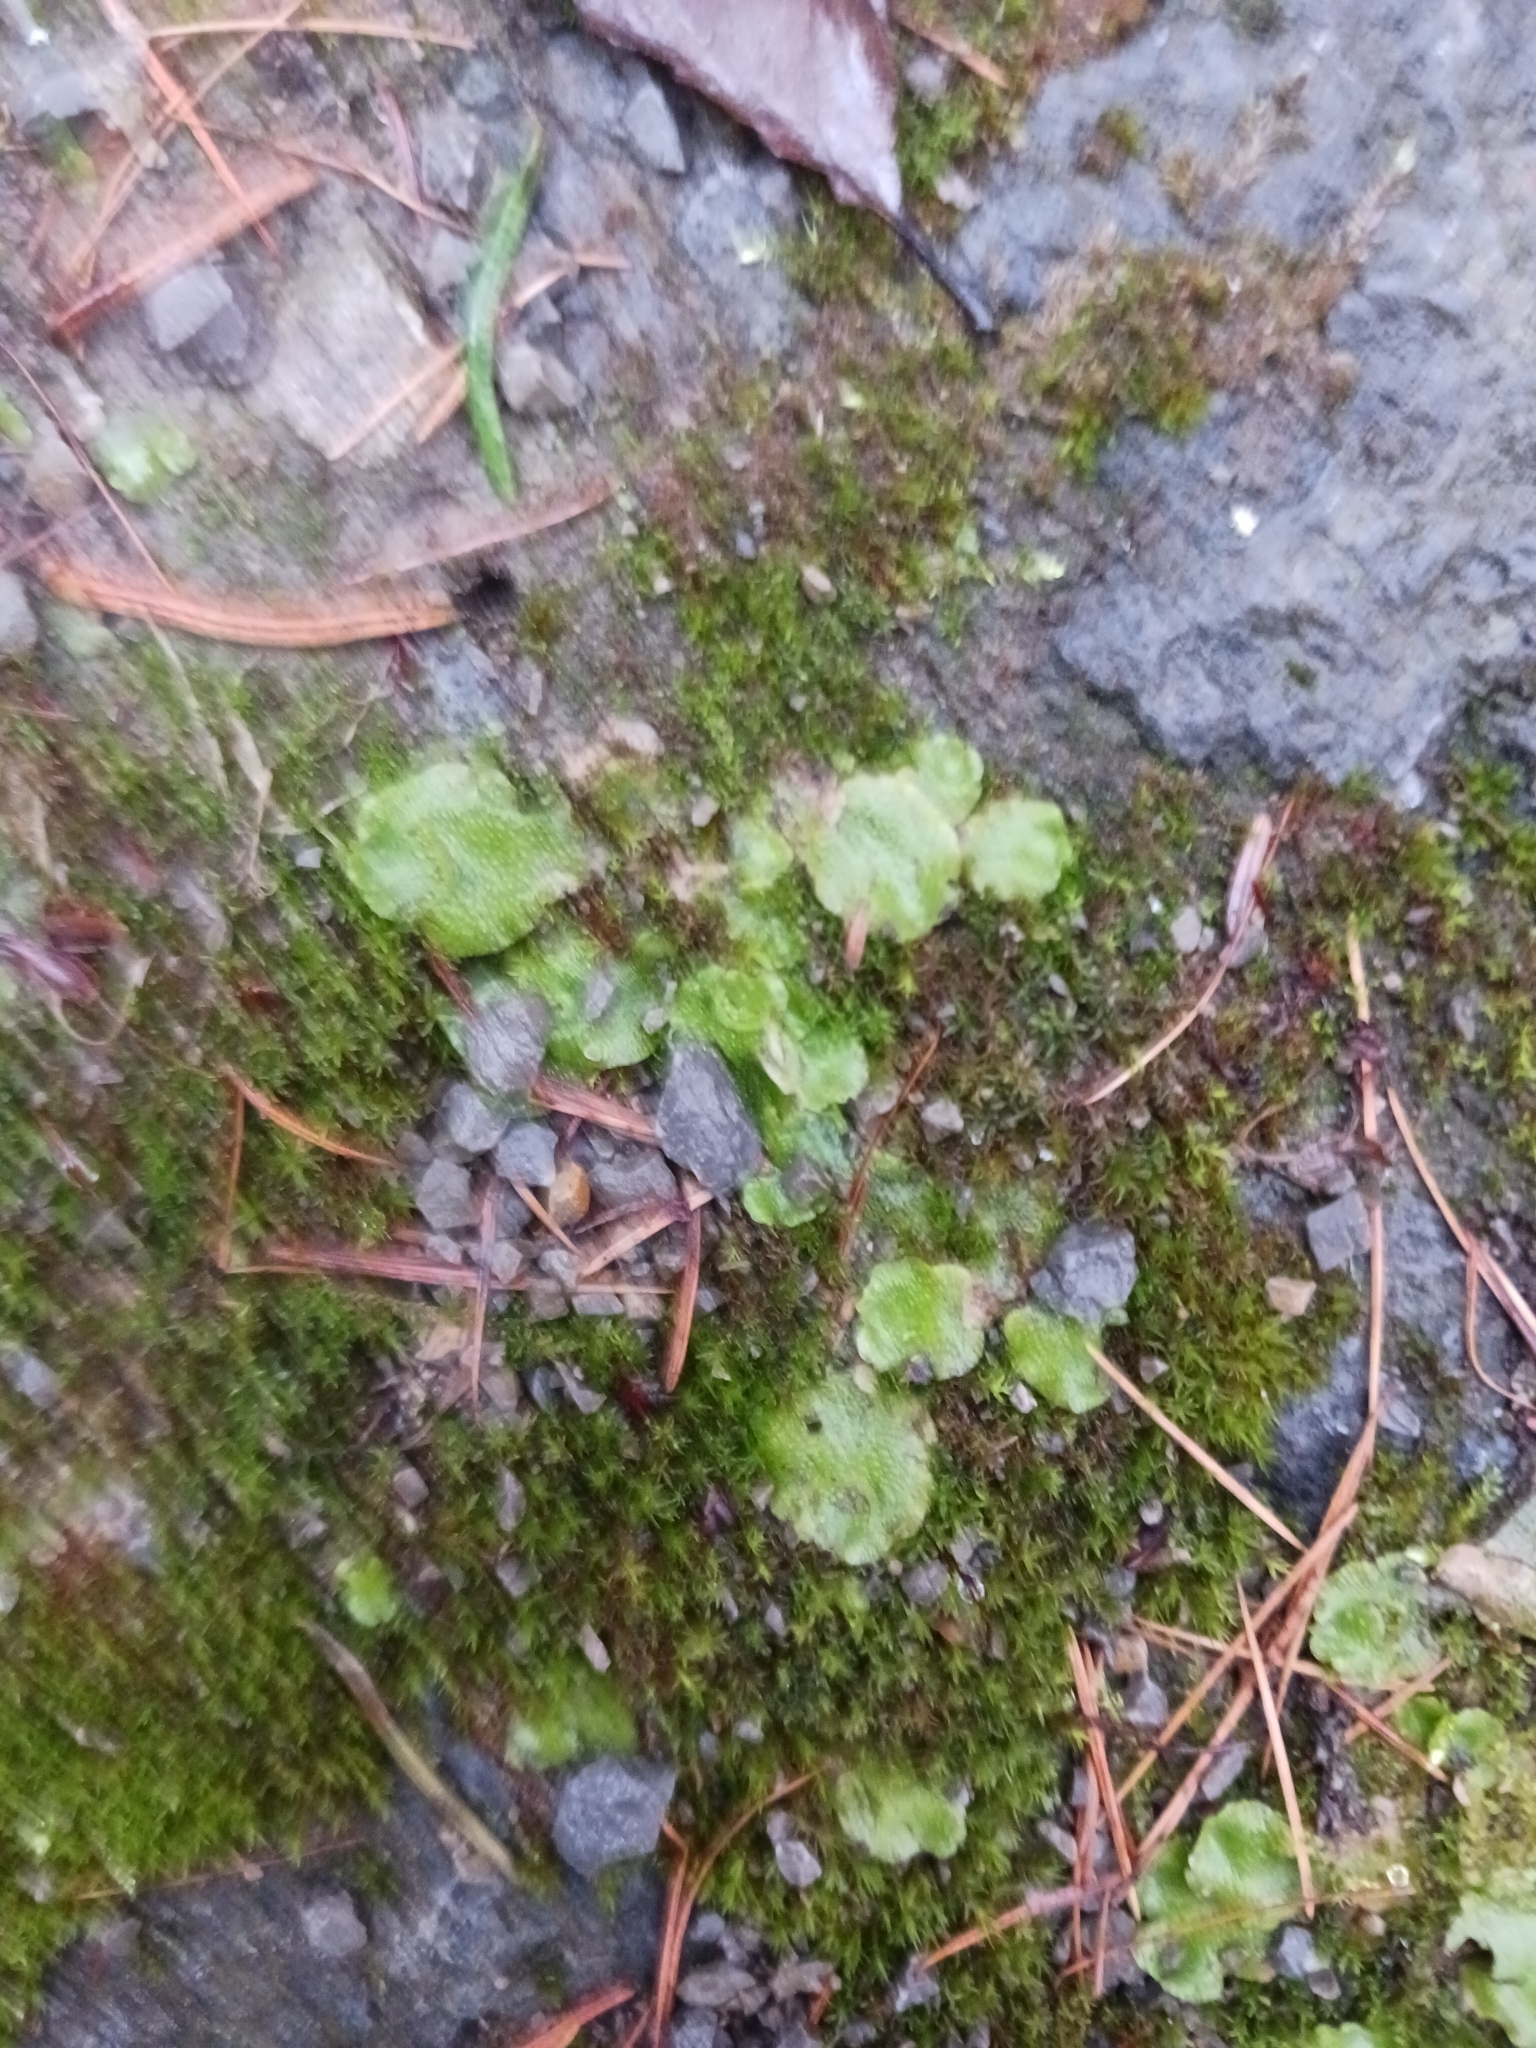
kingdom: Plantae
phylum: Marchantiophyta
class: Marchantiopsida
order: Lunulariales
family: Lunulariaceae
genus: Lunularia
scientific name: Lunularia cruciata
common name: Crescent-cup liverwort
